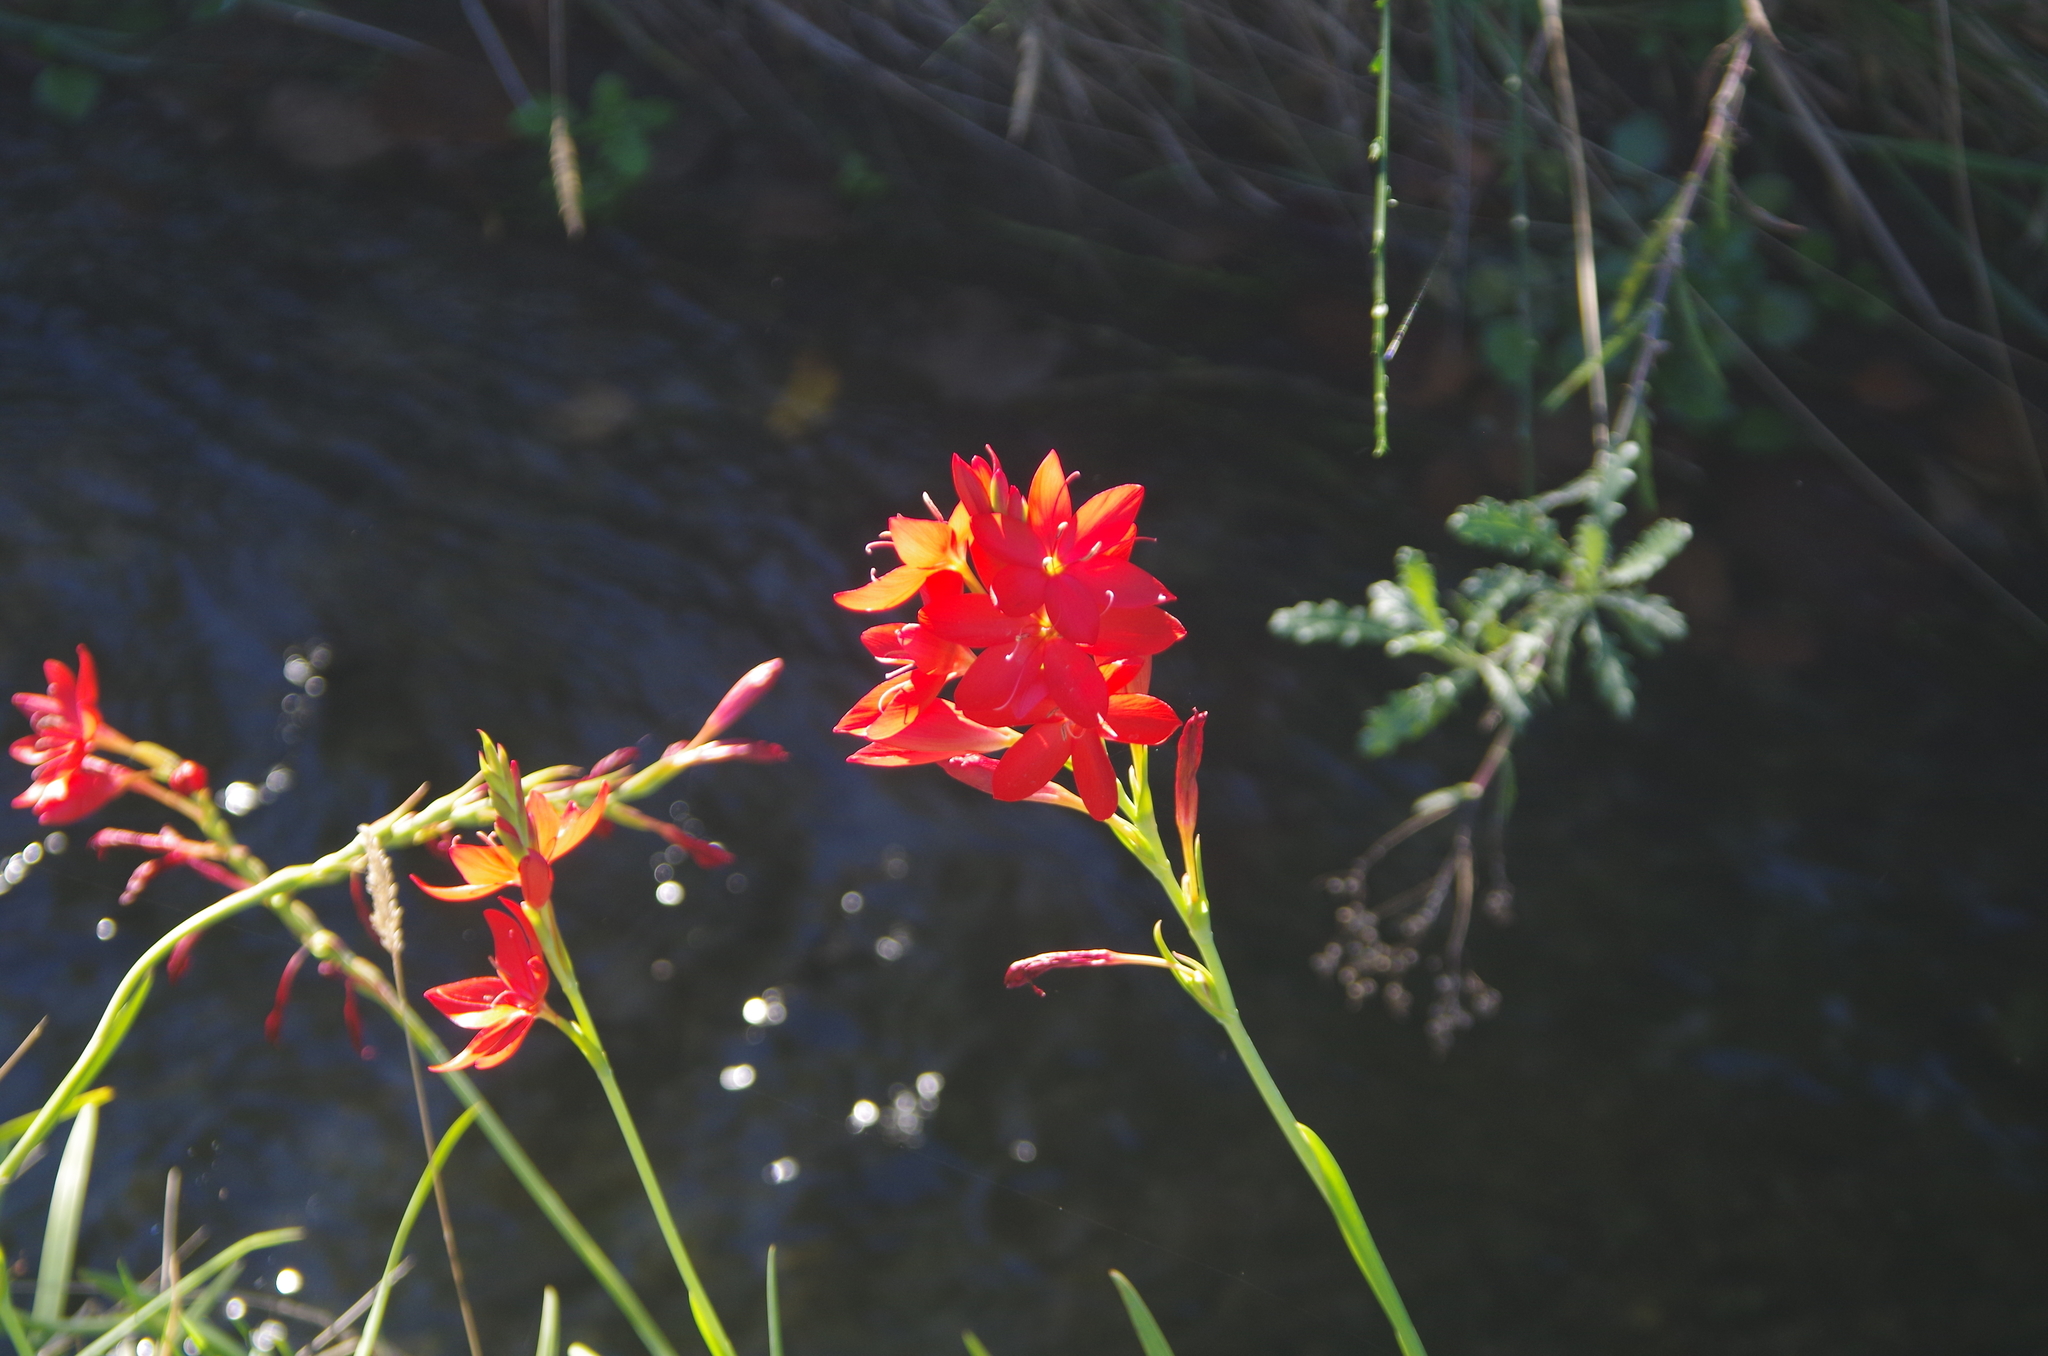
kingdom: Plantae
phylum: Tracheophyta
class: Liliopsida
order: Asparagales
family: Iridaceae
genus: Hesperantha
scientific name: Hesperantha coccinea
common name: River-lily
